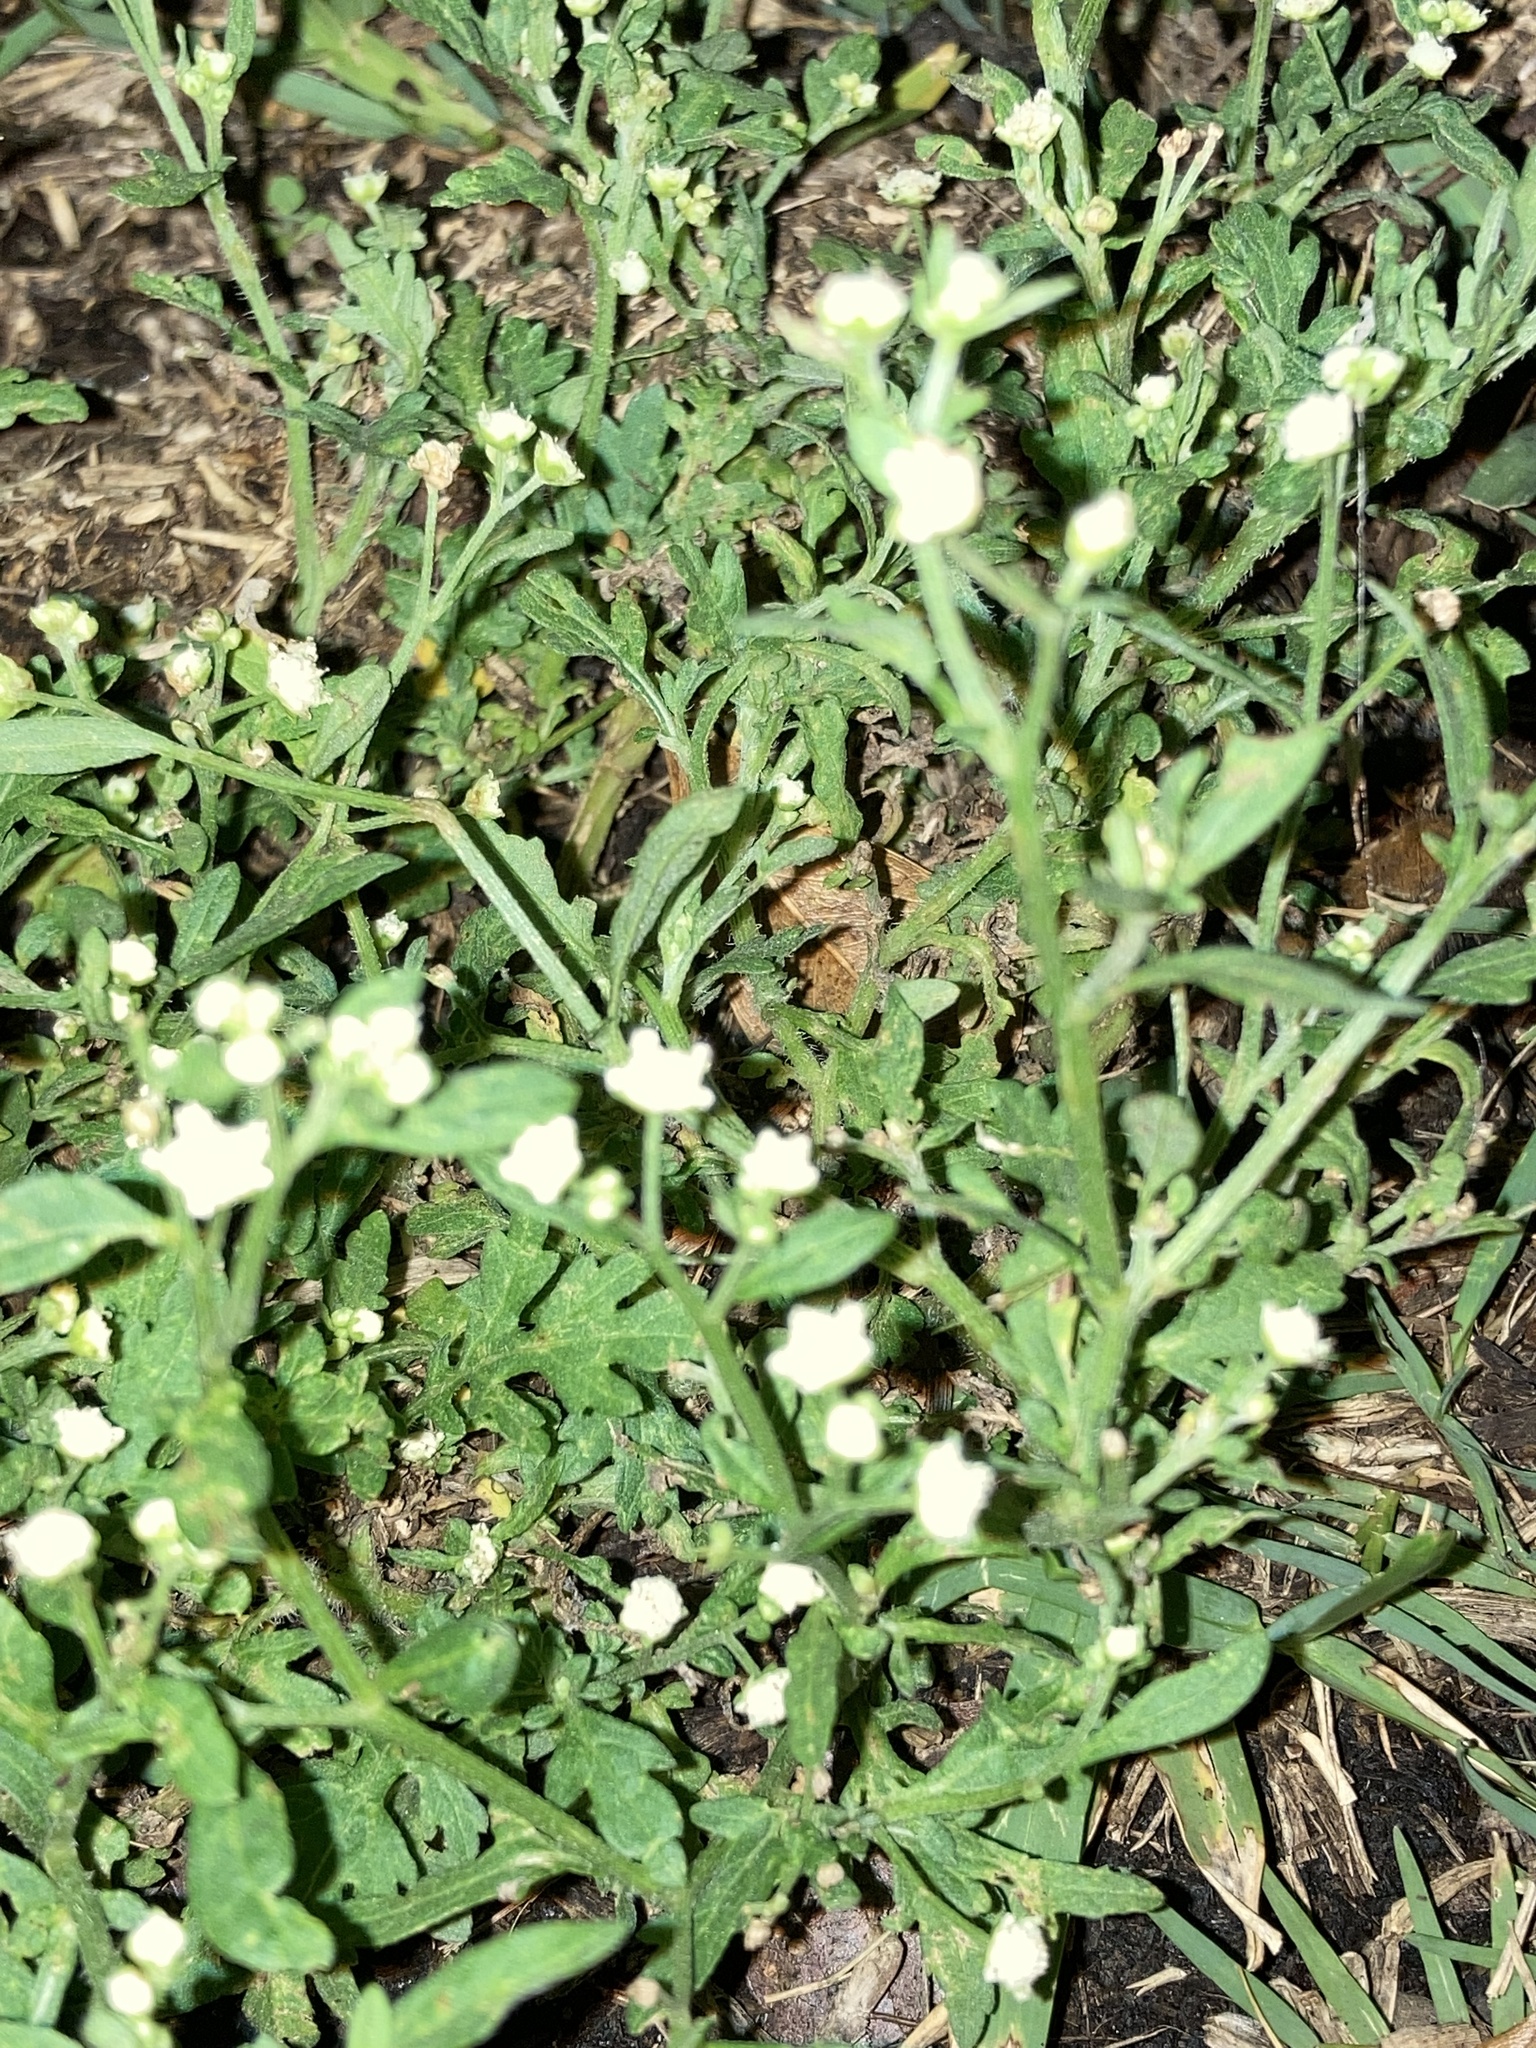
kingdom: Plantae
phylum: Tracheophyta
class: Magnoliopsida
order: Asterales
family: Asteraceae
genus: Parthenium
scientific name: Parthenium hysterophorus
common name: Santa maria feverfew
